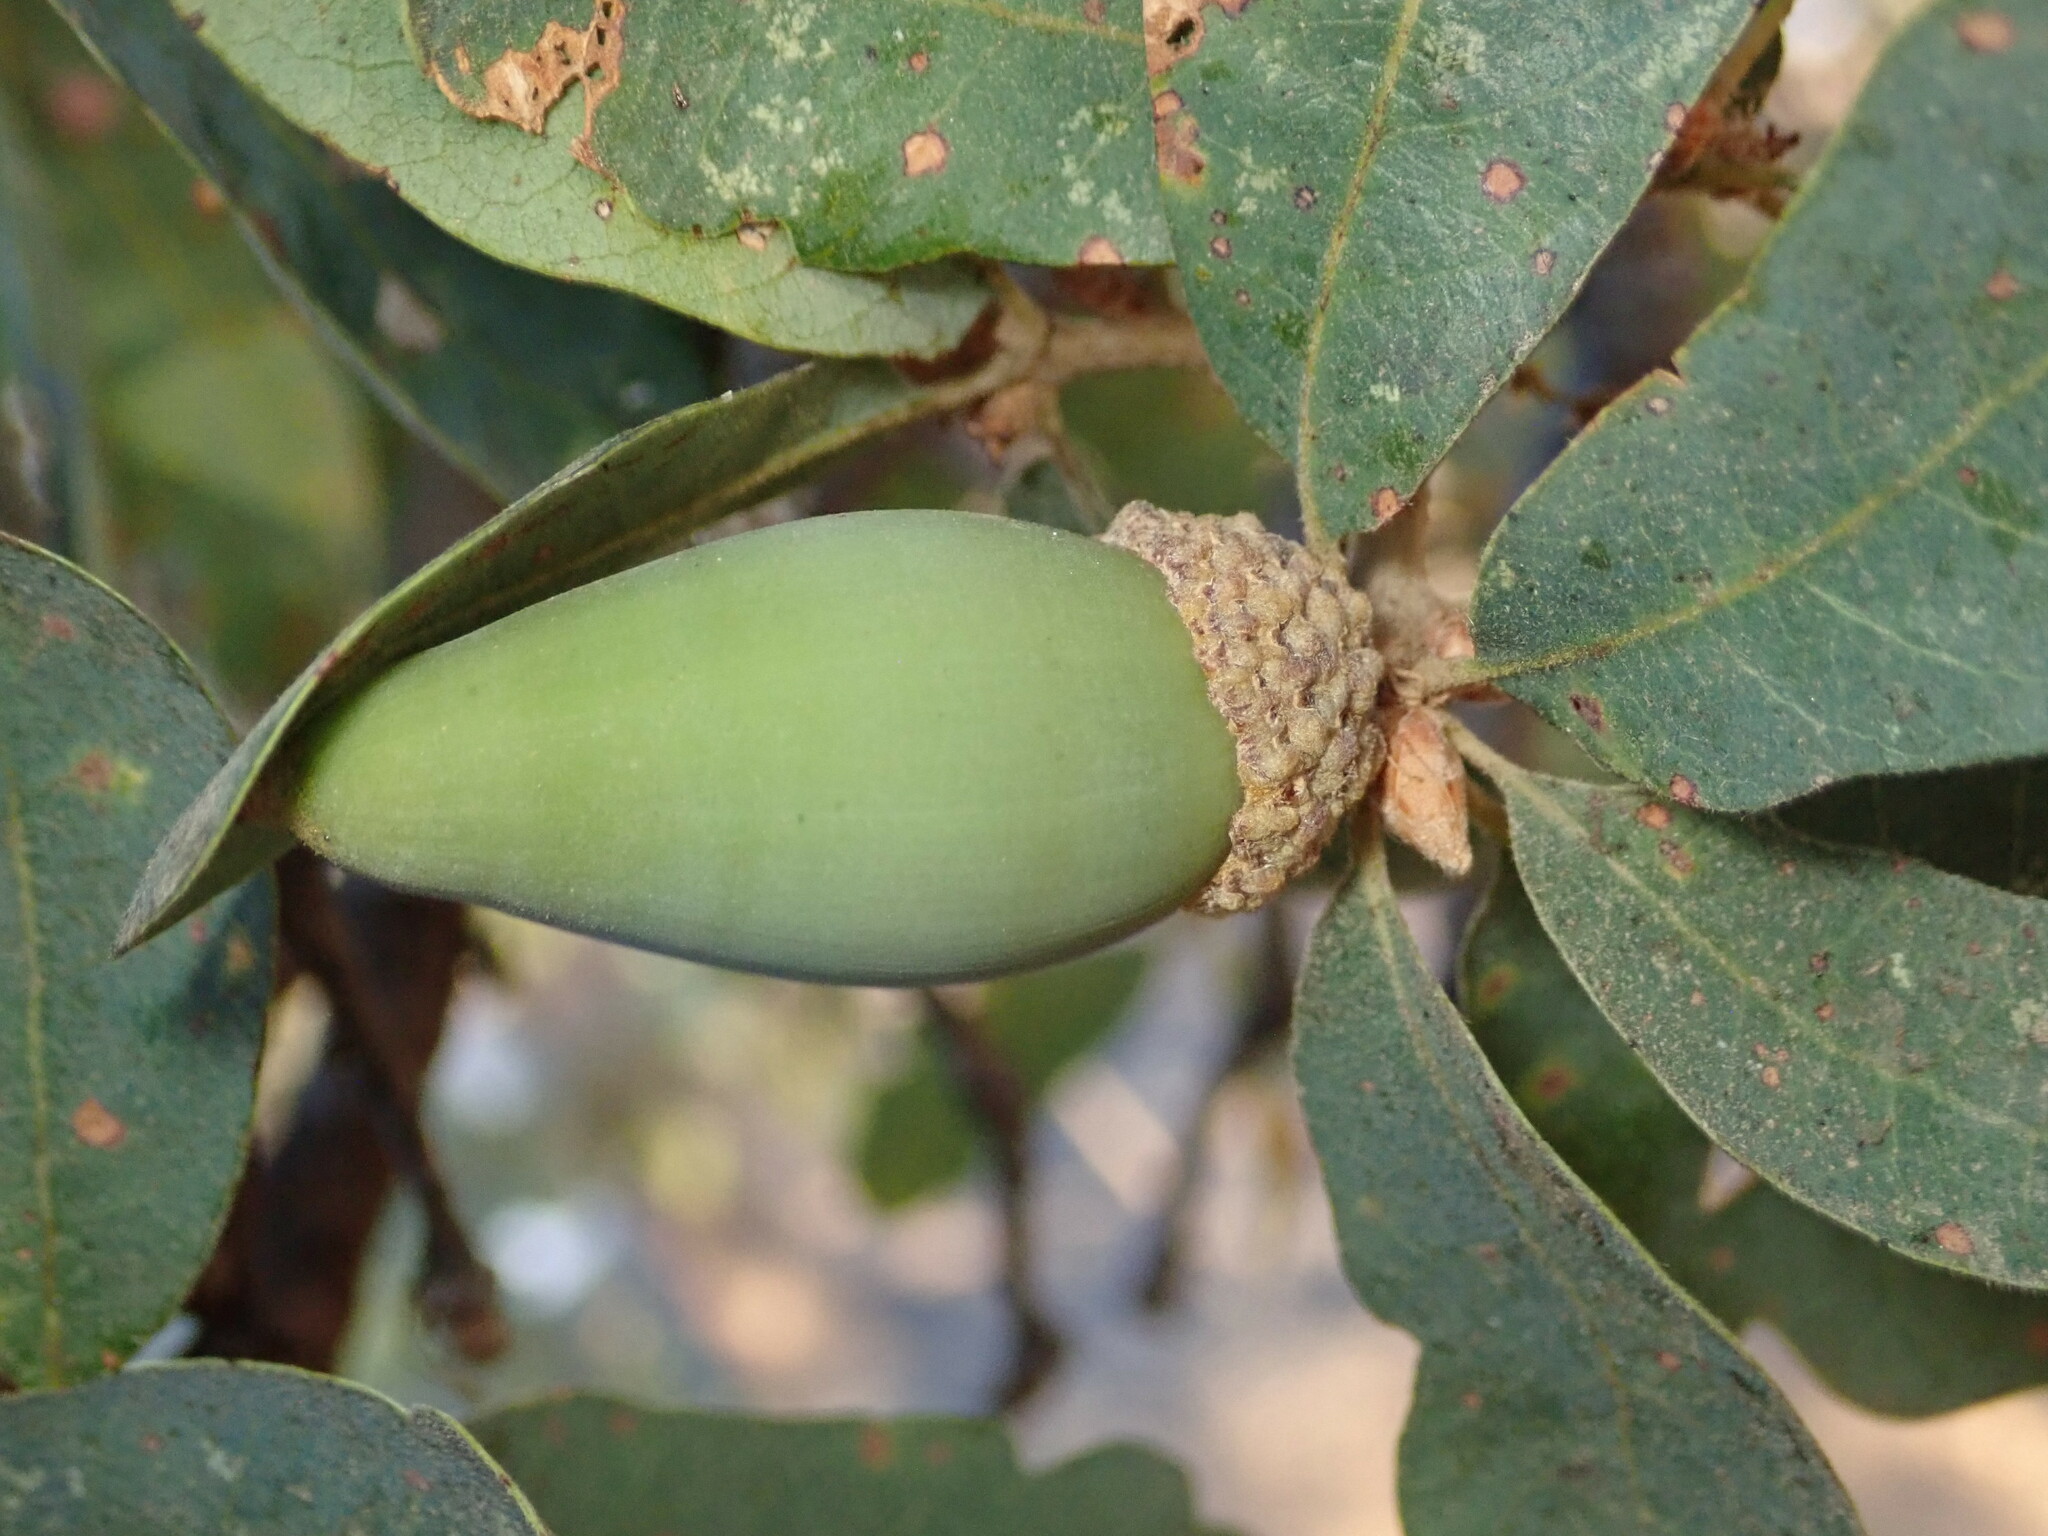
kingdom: Plantae
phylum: Tracheophyta
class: Magnoliopsida
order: Fagales
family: Fagaceae
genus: Quercus
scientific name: Quercus douglasii
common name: Blue oak
